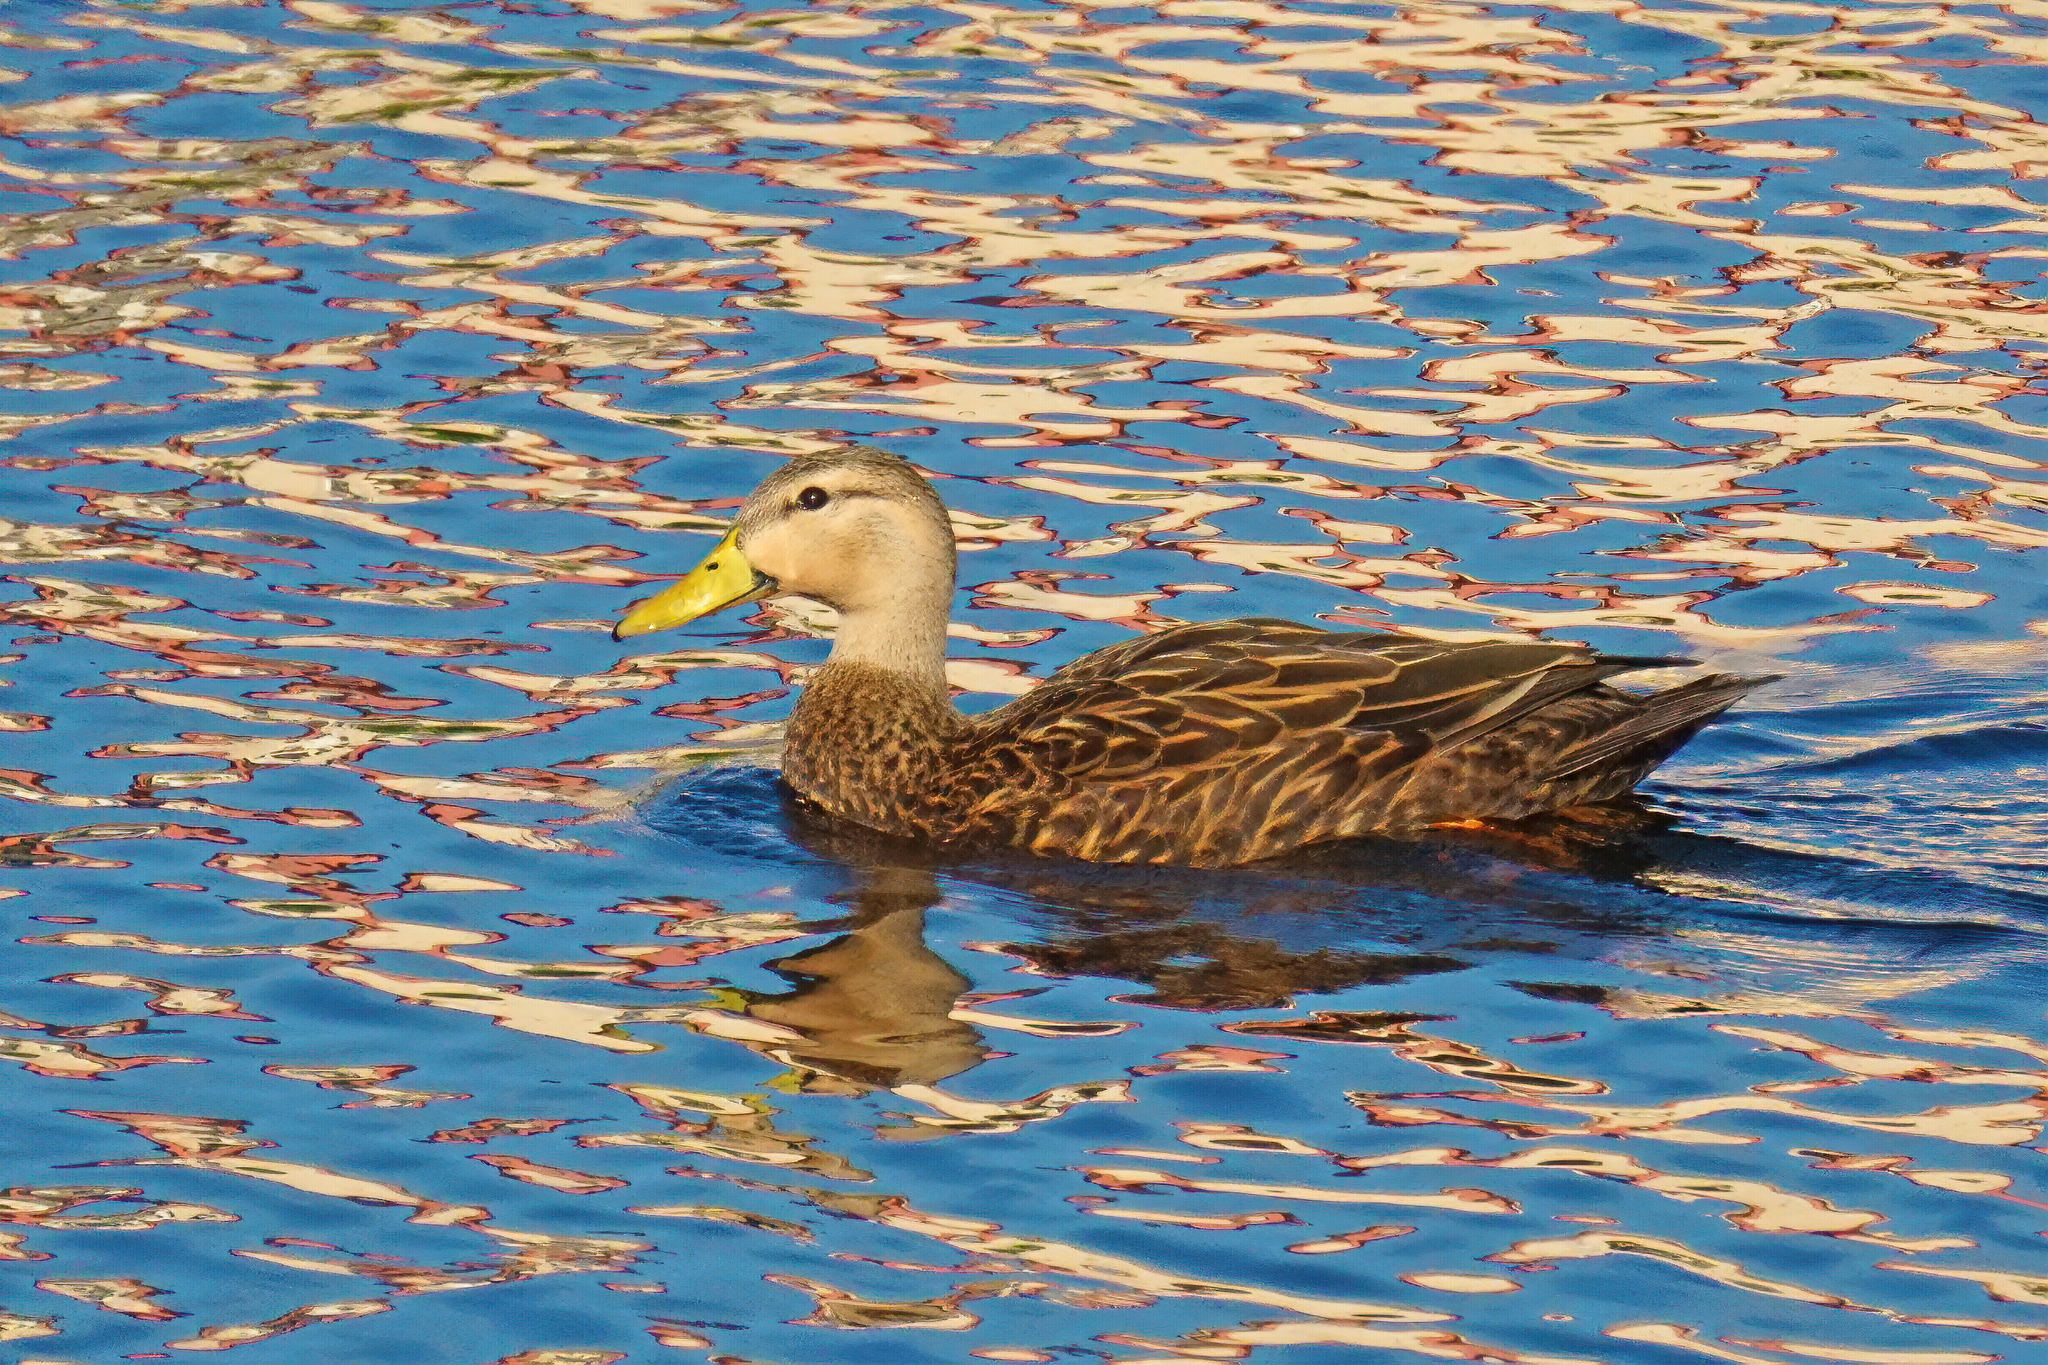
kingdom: Animalia
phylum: Chordata
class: Aves
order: Anseriformes
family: Anatidae
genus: Anas
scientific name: Anas fulvigula
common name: Mottled duck
